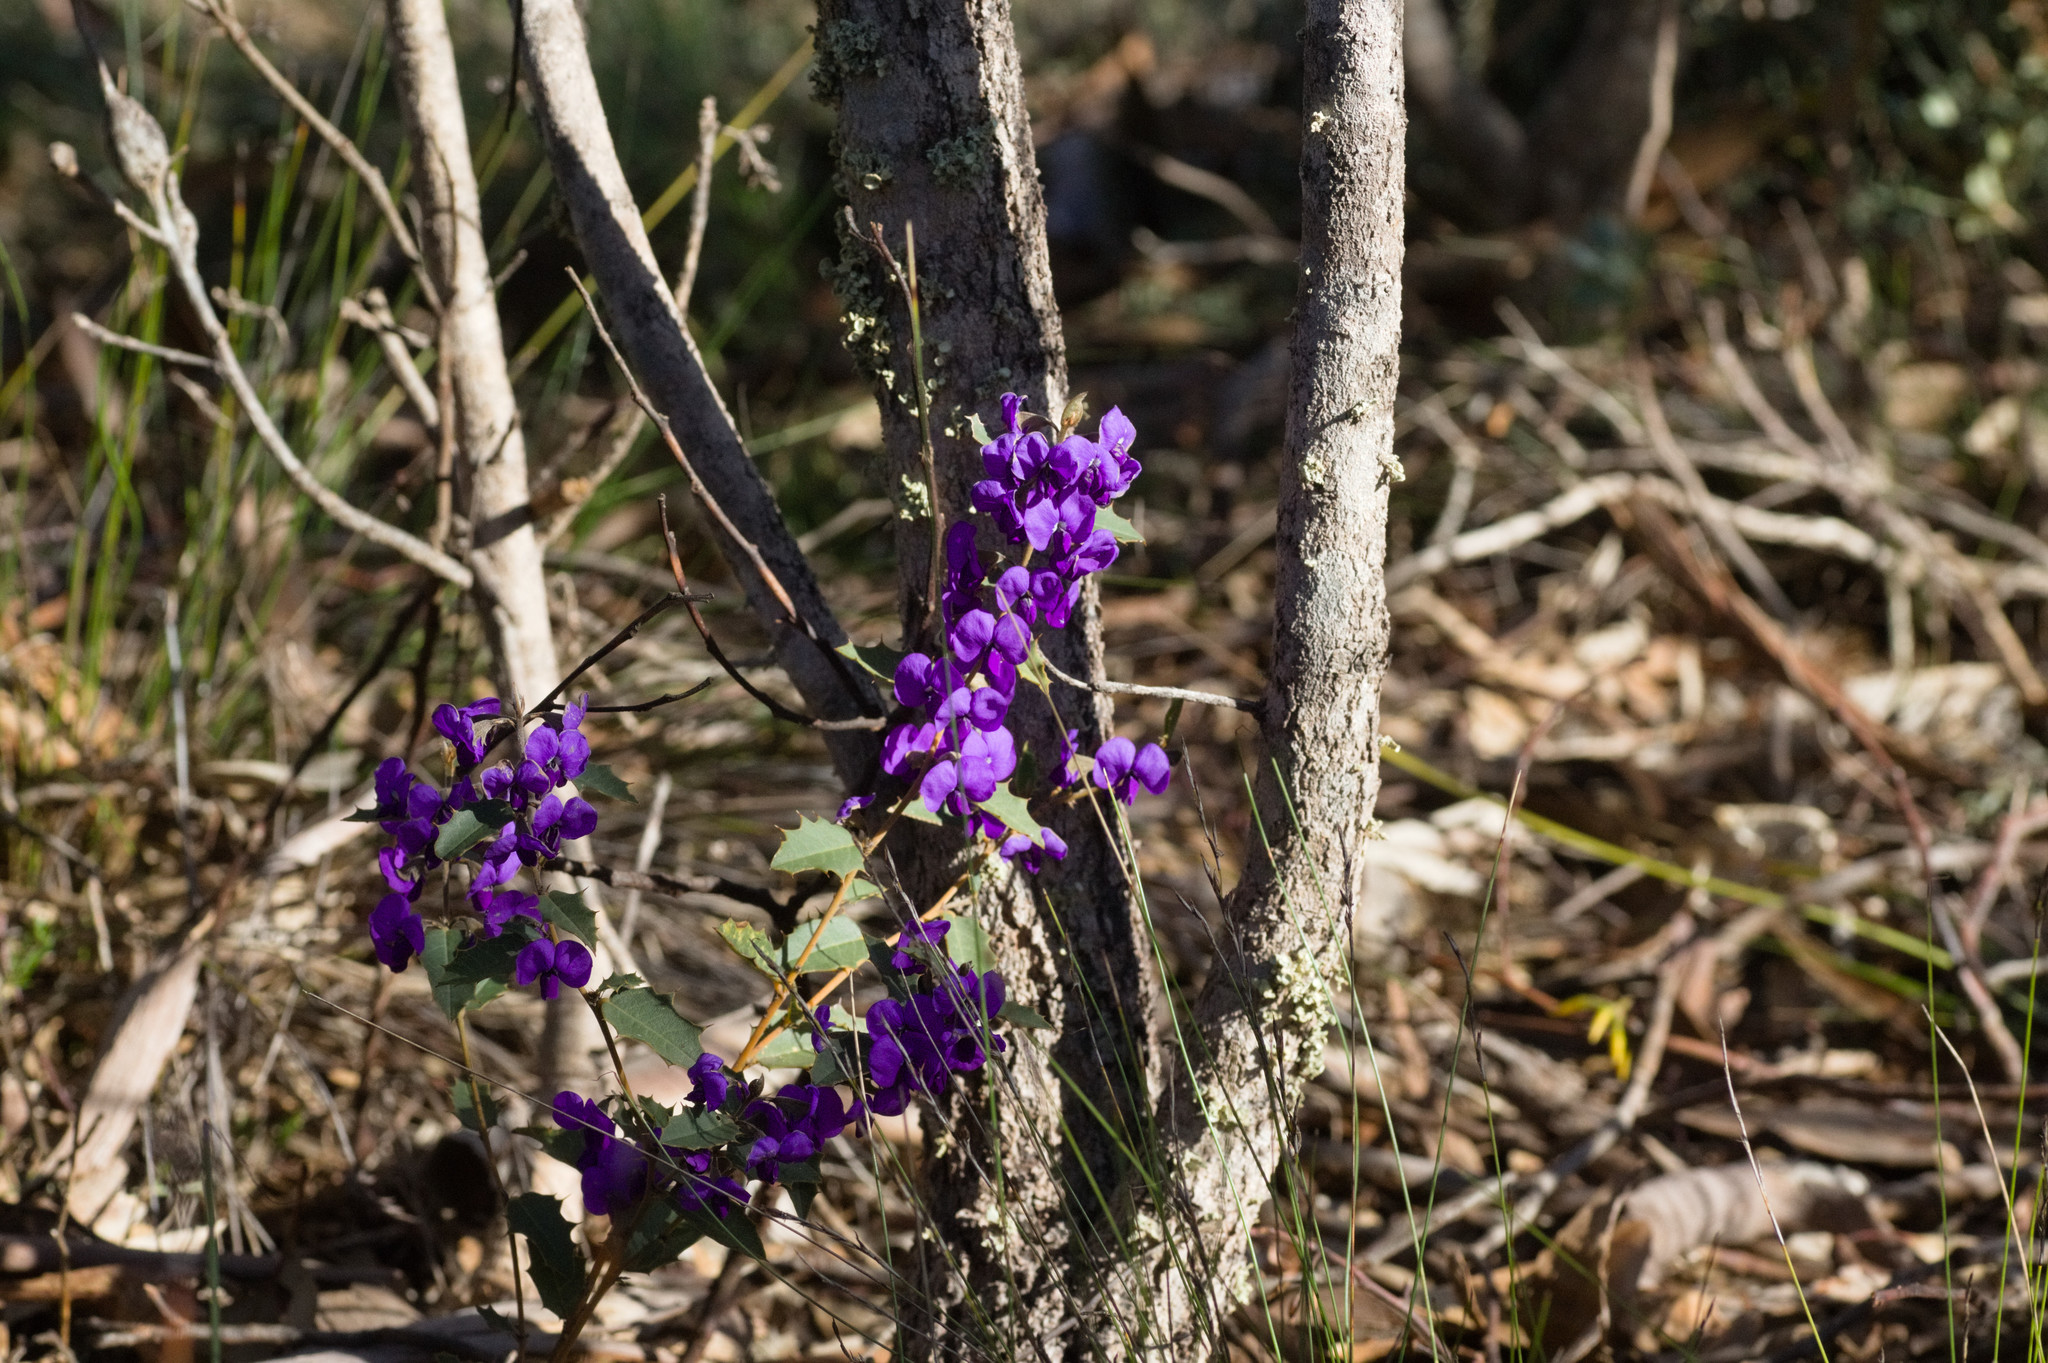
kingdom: Plantae
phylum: Tracheophyta
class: Magnoliopsida
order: Fabales
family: Fabaceae
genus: Hovea
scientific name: Hovea chorizemifolia
